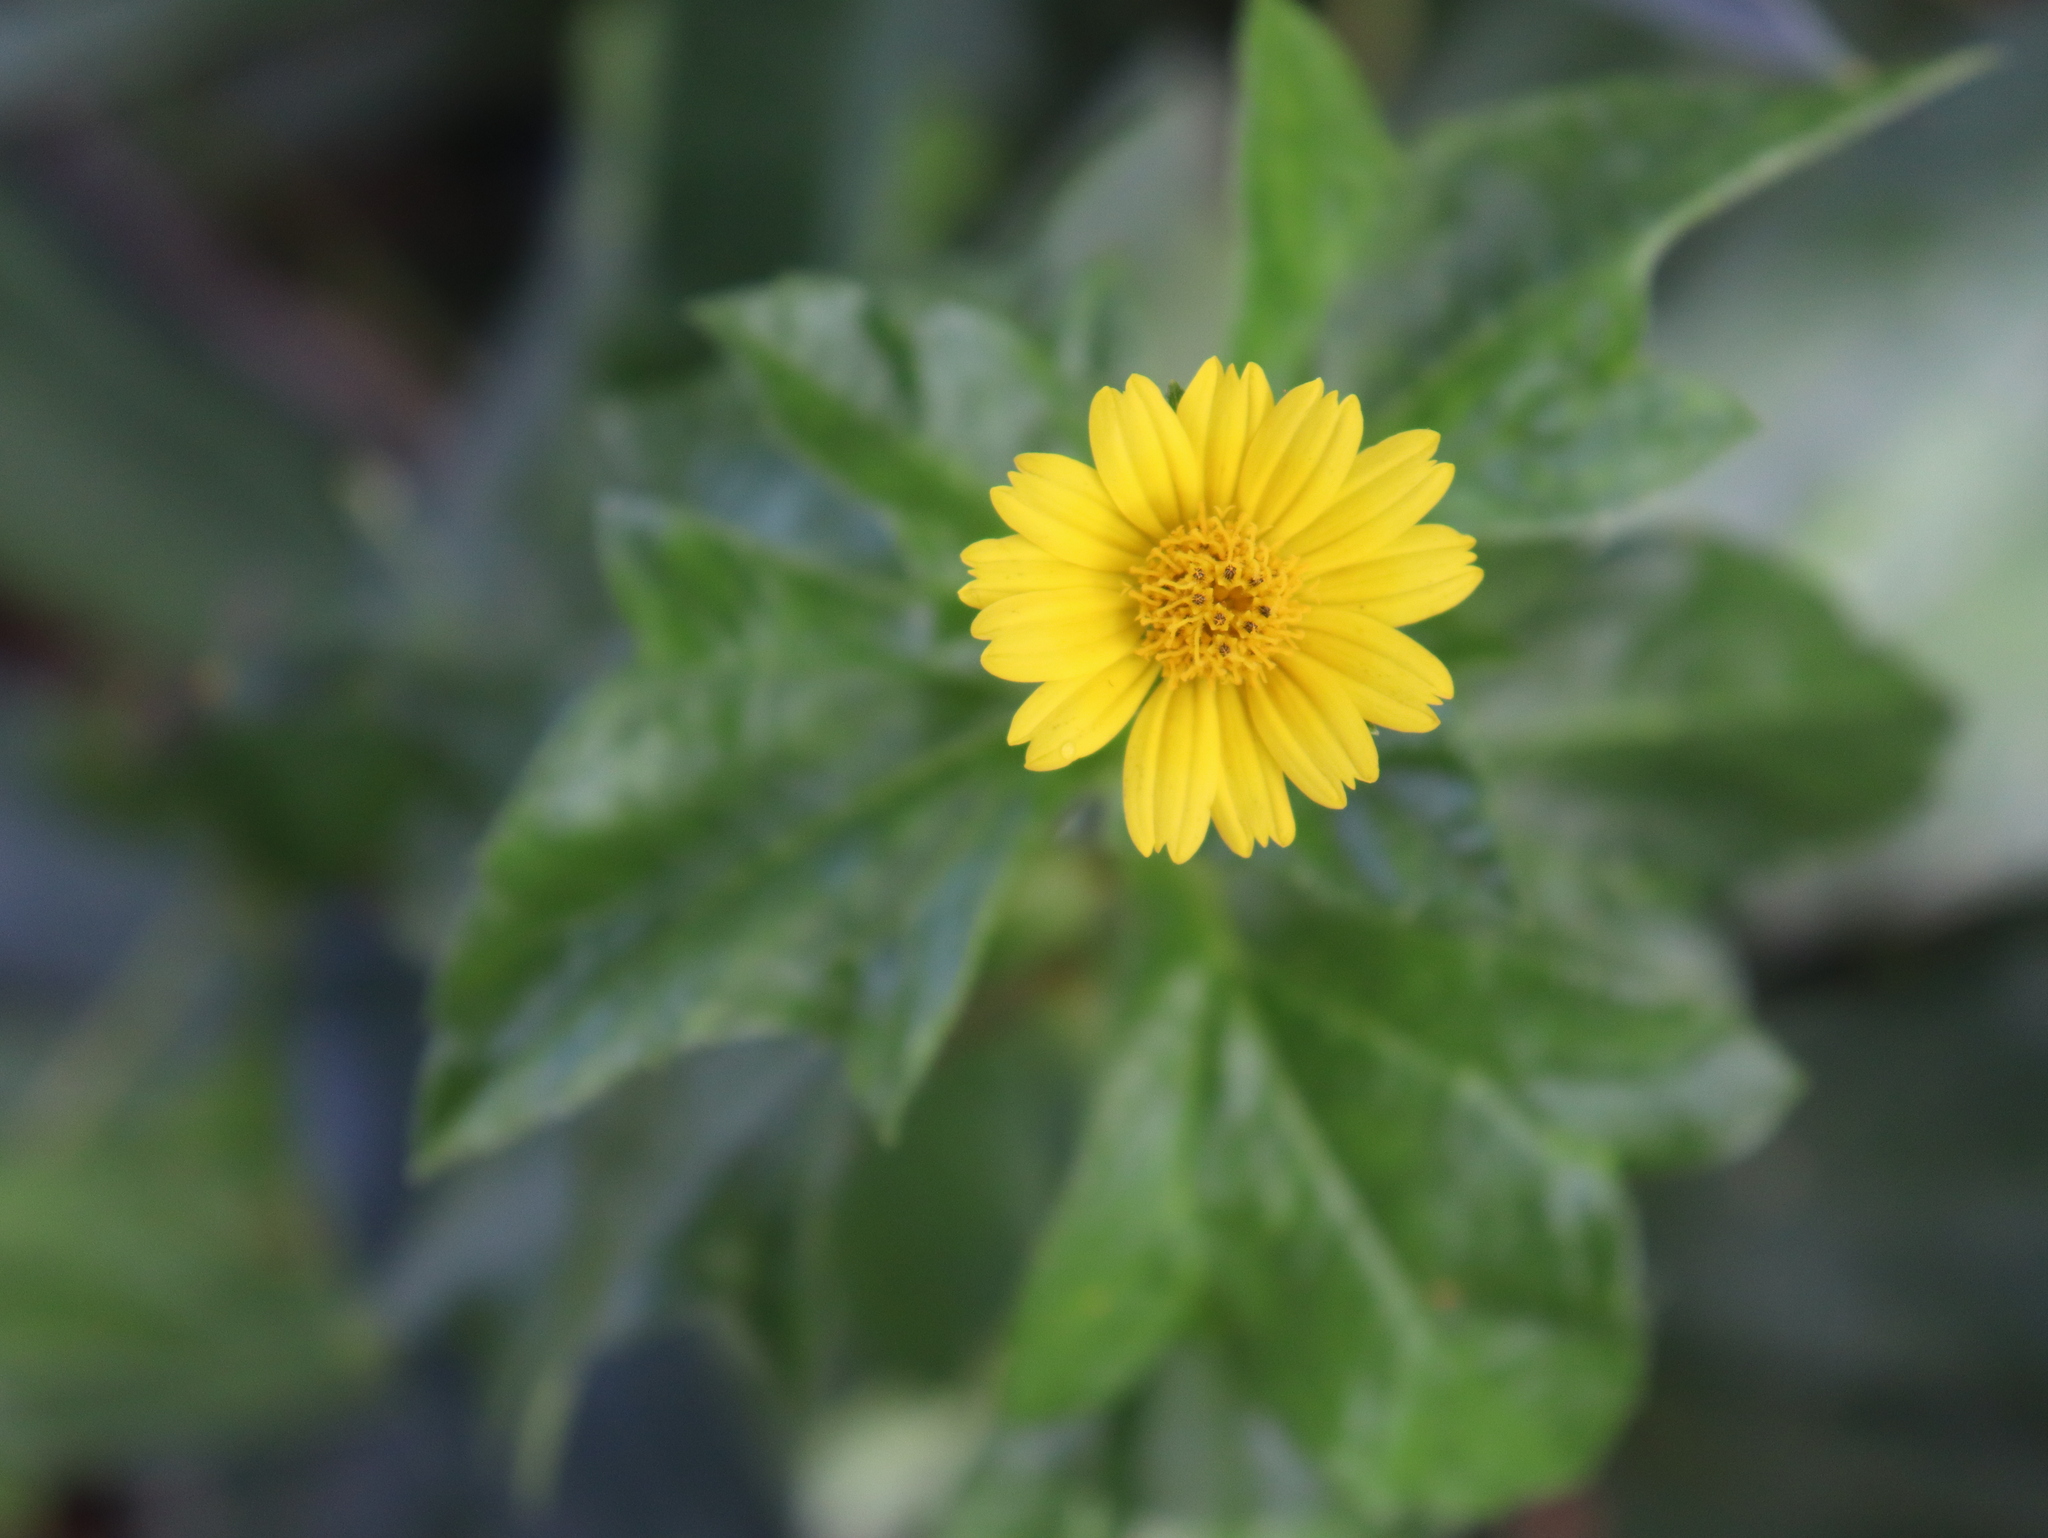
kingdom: Plantae
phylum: Tracheophyta
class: Magnoliopsida
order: Asterales
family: Asteraceae
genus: Sphagneticola
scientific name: Sphagneticola trilobata
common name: Bay biscayne creeping-oxeye
